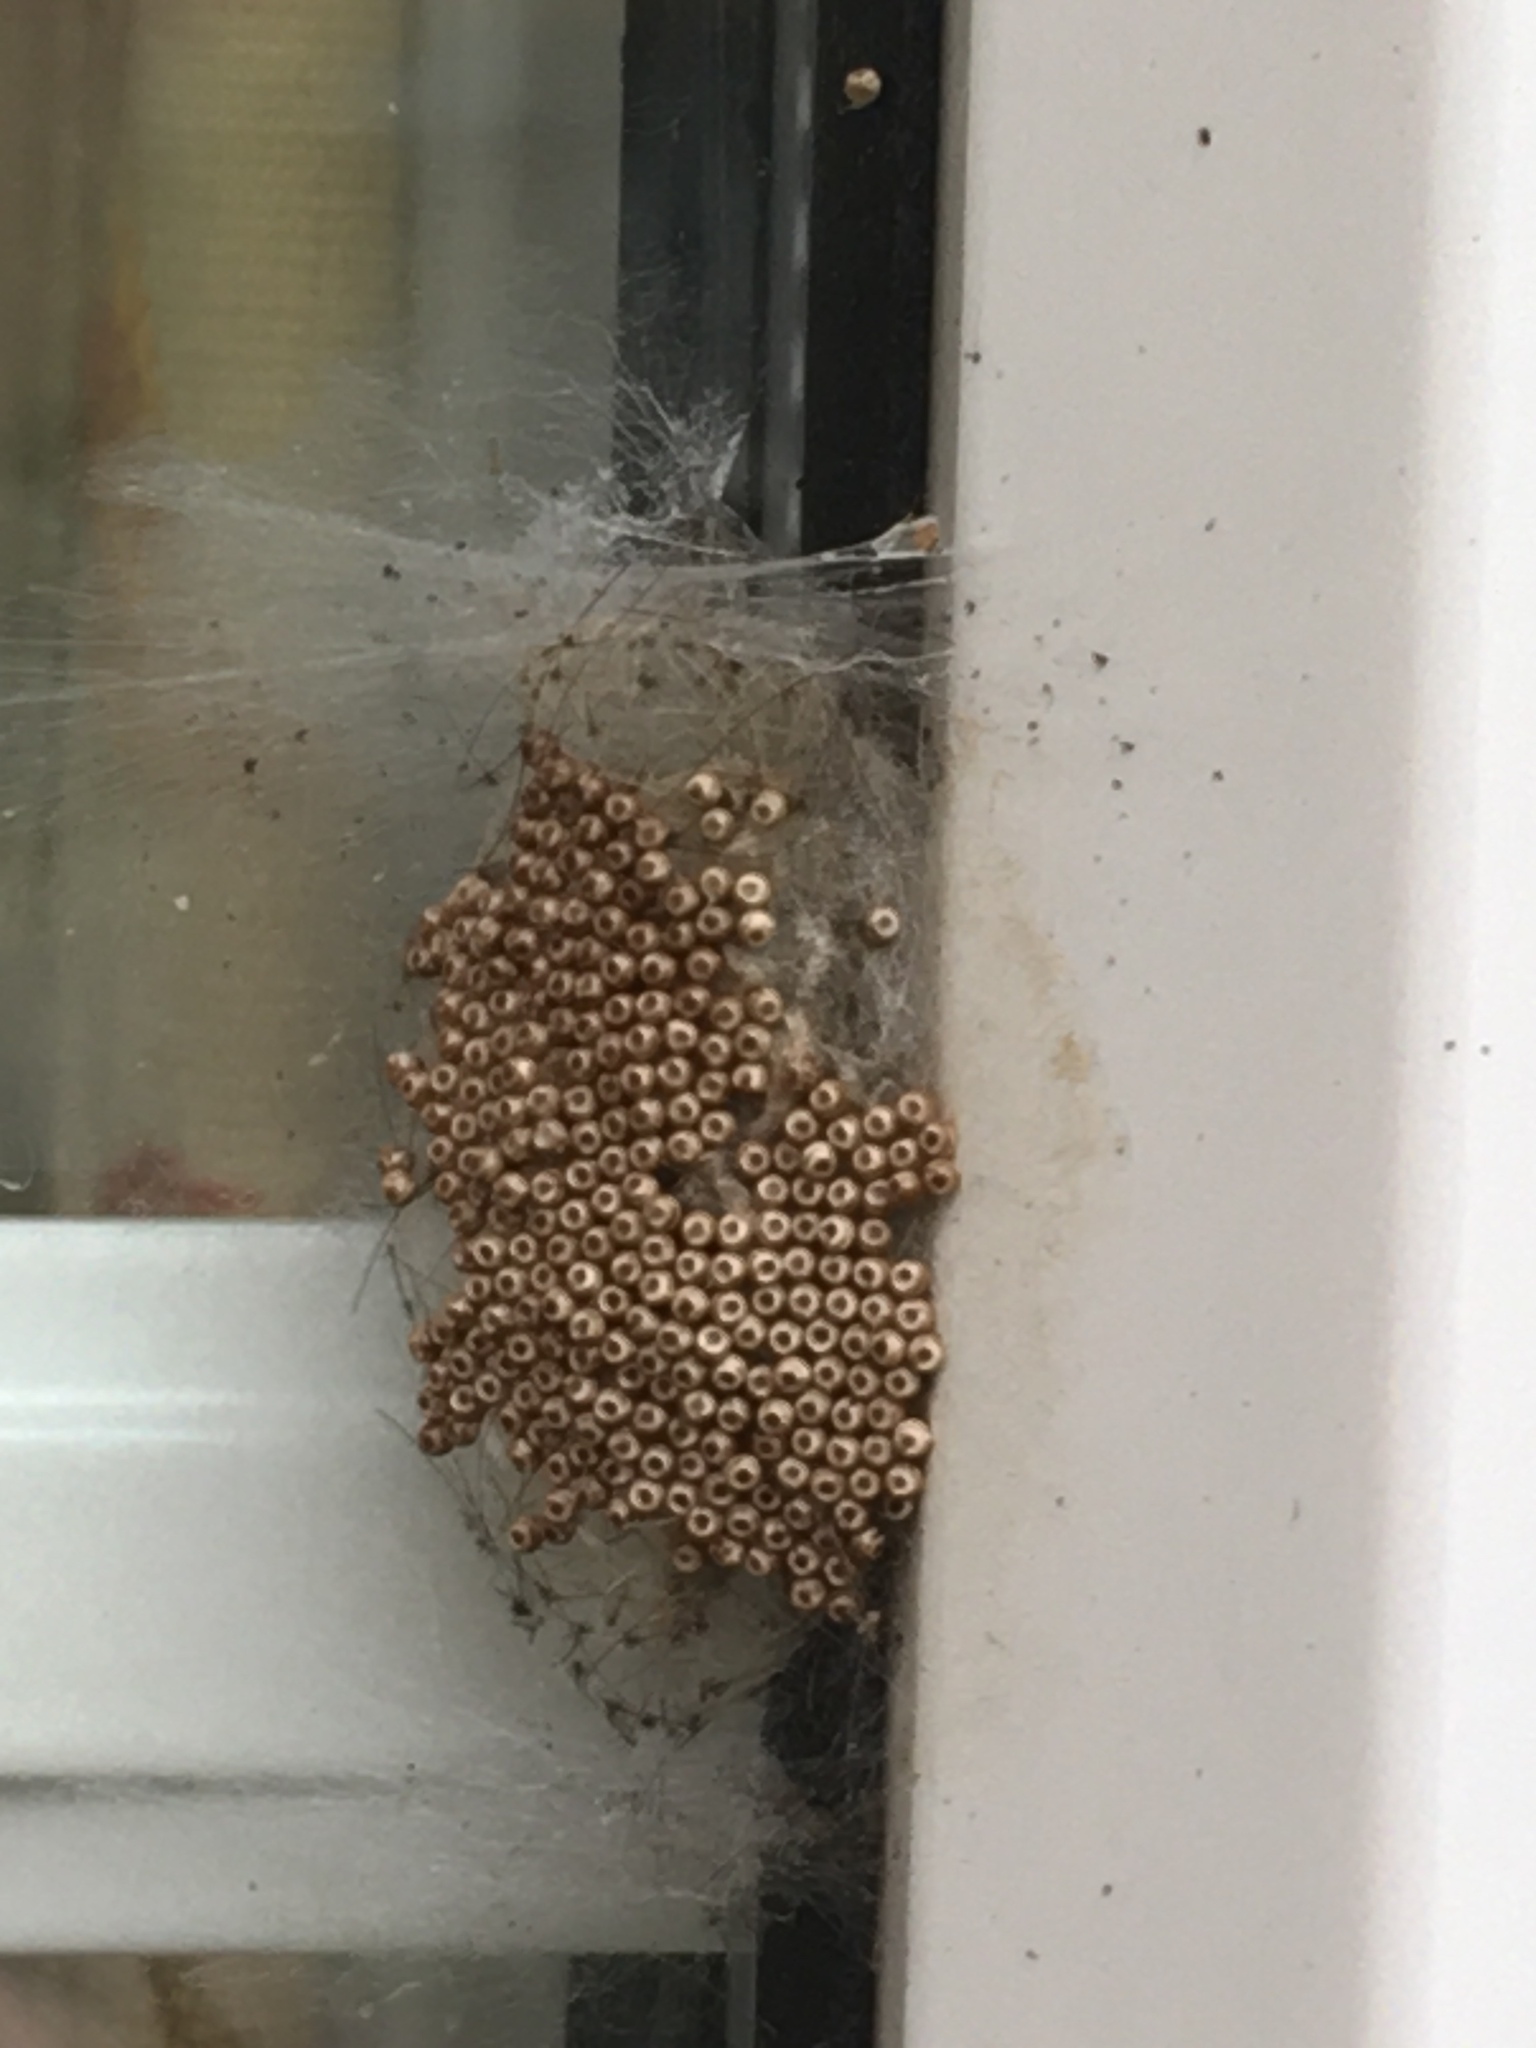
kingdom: Animalia
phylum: Arthropoda
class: Insecta
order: Lepidoptera
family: Erebidae
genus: Orgyia
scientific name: Orgyia antiqua
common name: Vapourer
